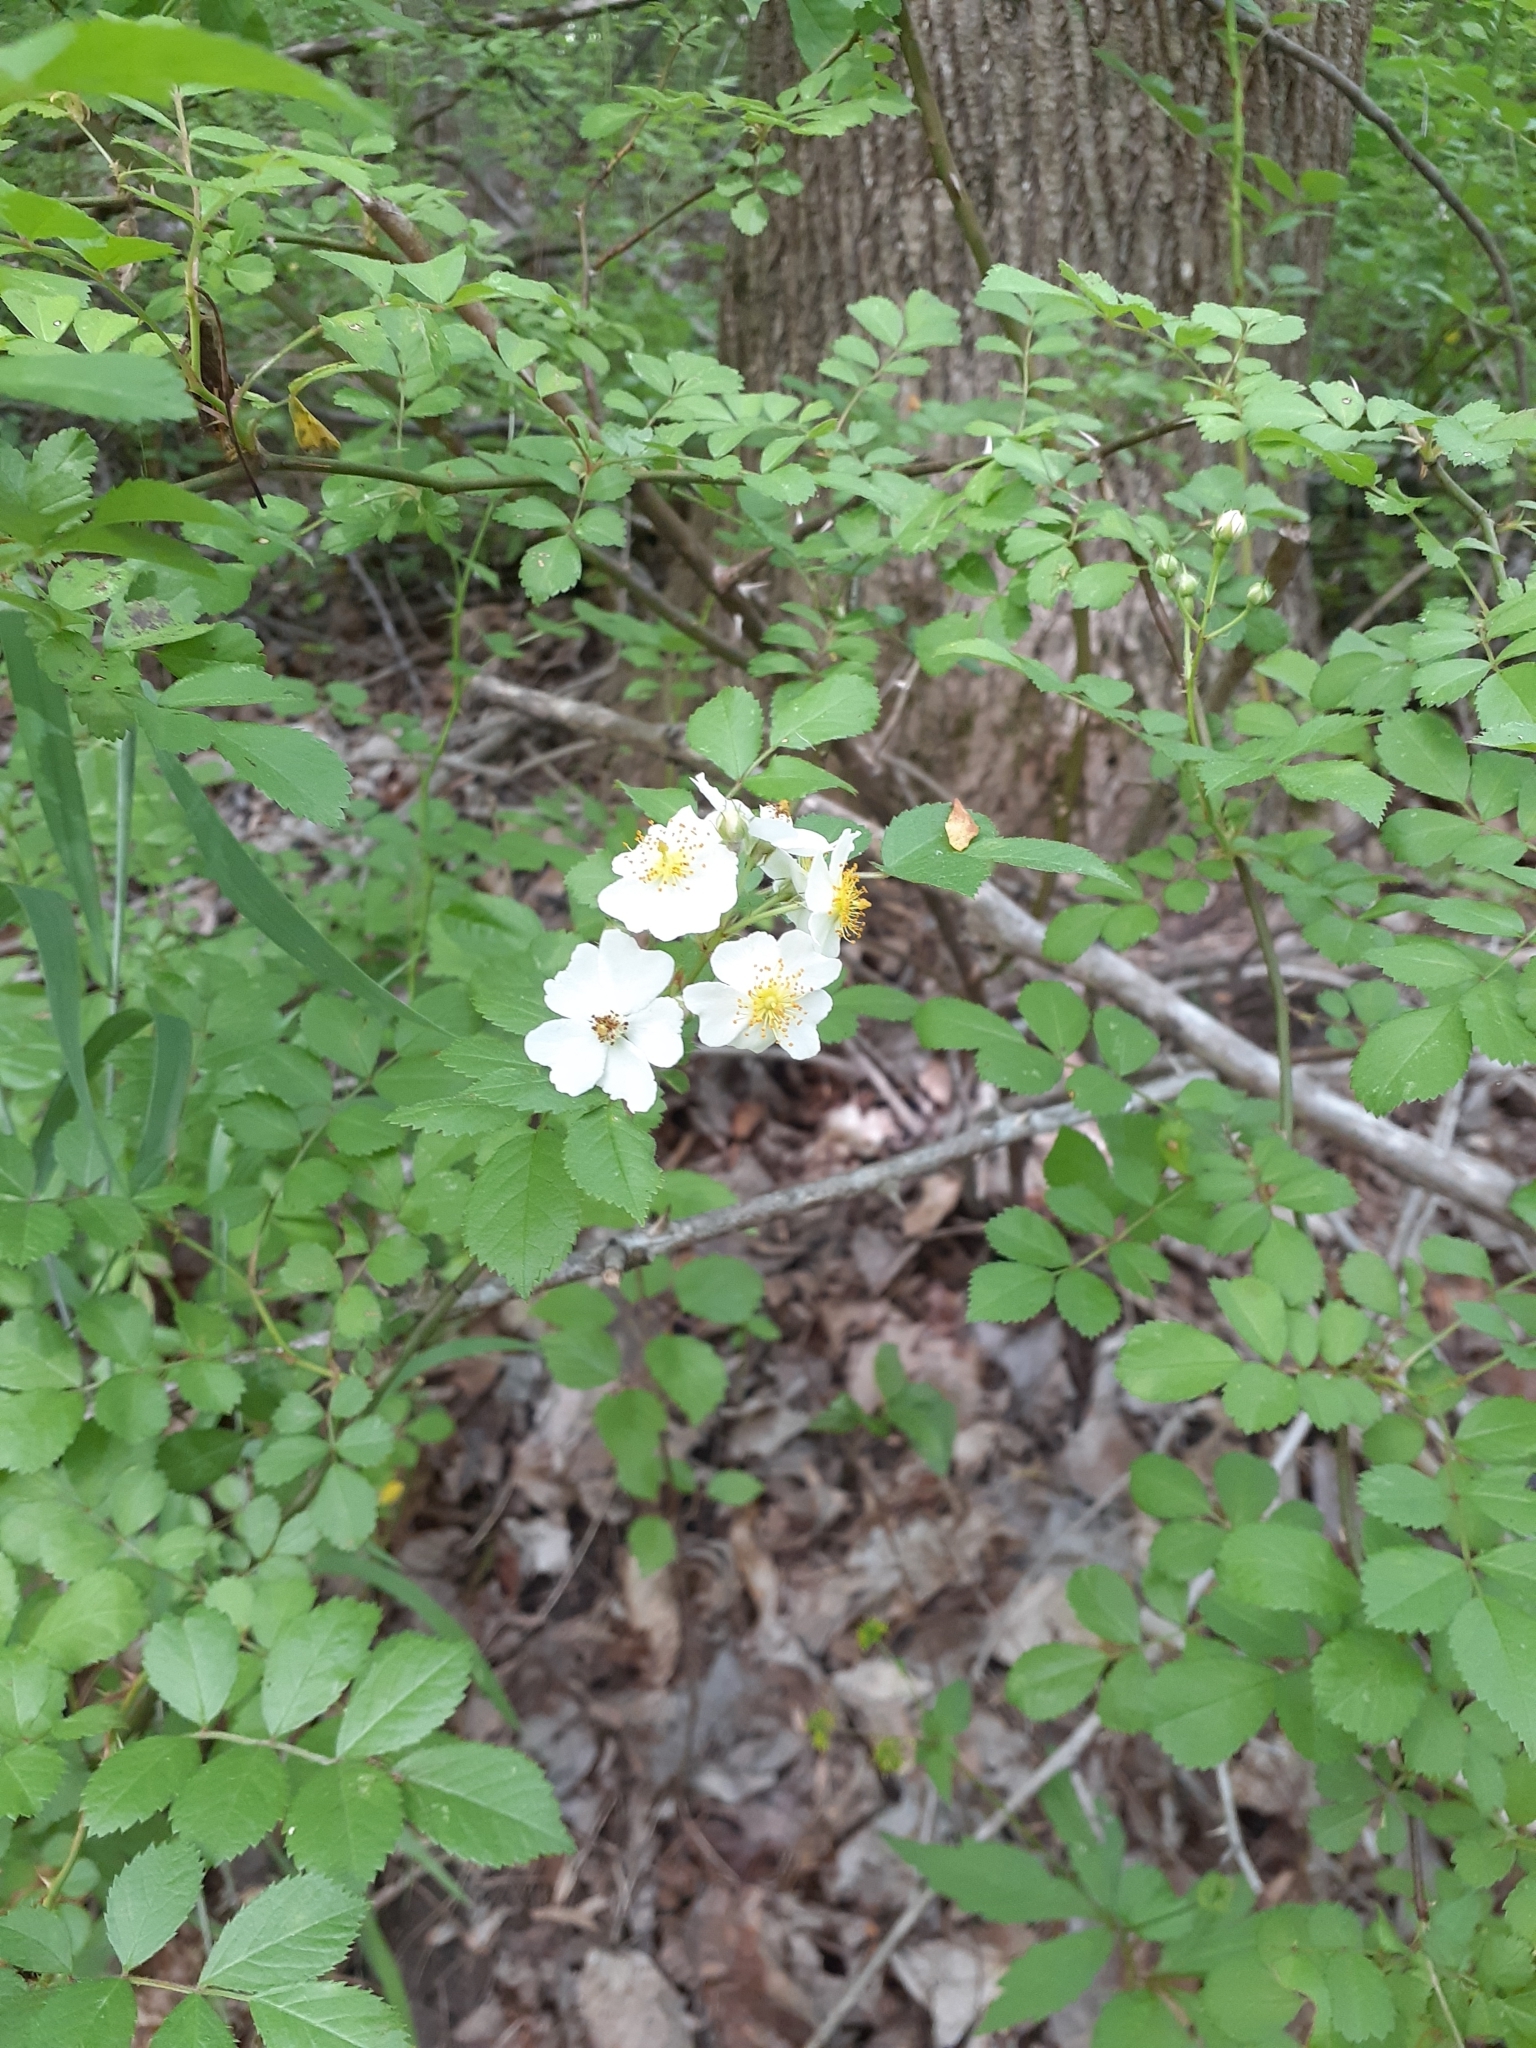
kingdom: Plantae
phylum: Tracheophyta
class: Magnoliopsida
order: Rosales
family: Rosaceae
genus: Rosa
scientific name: Rosa multiflora
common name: Multiflora rose
